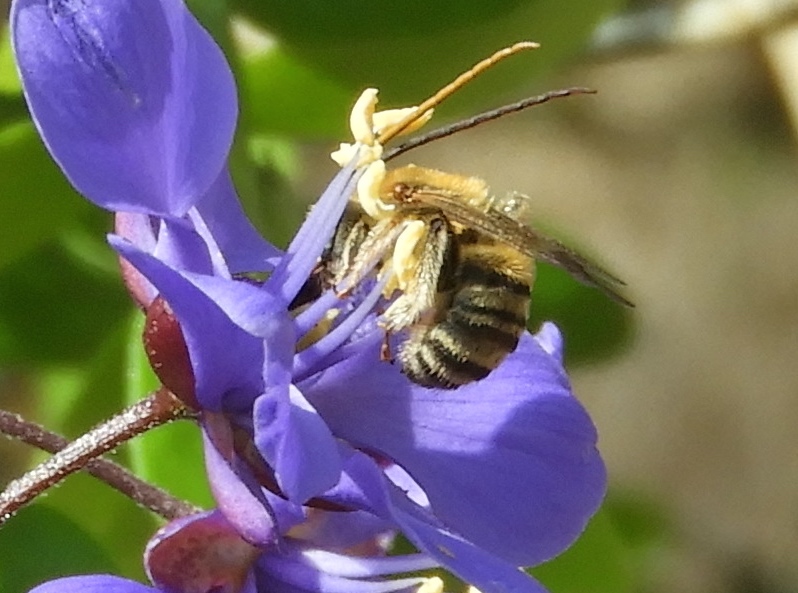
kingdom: Animalia
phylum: Arthropoda
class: Insecta
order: Hymenoptera
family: Apidae
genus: Melissodes
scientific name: Melissodes
